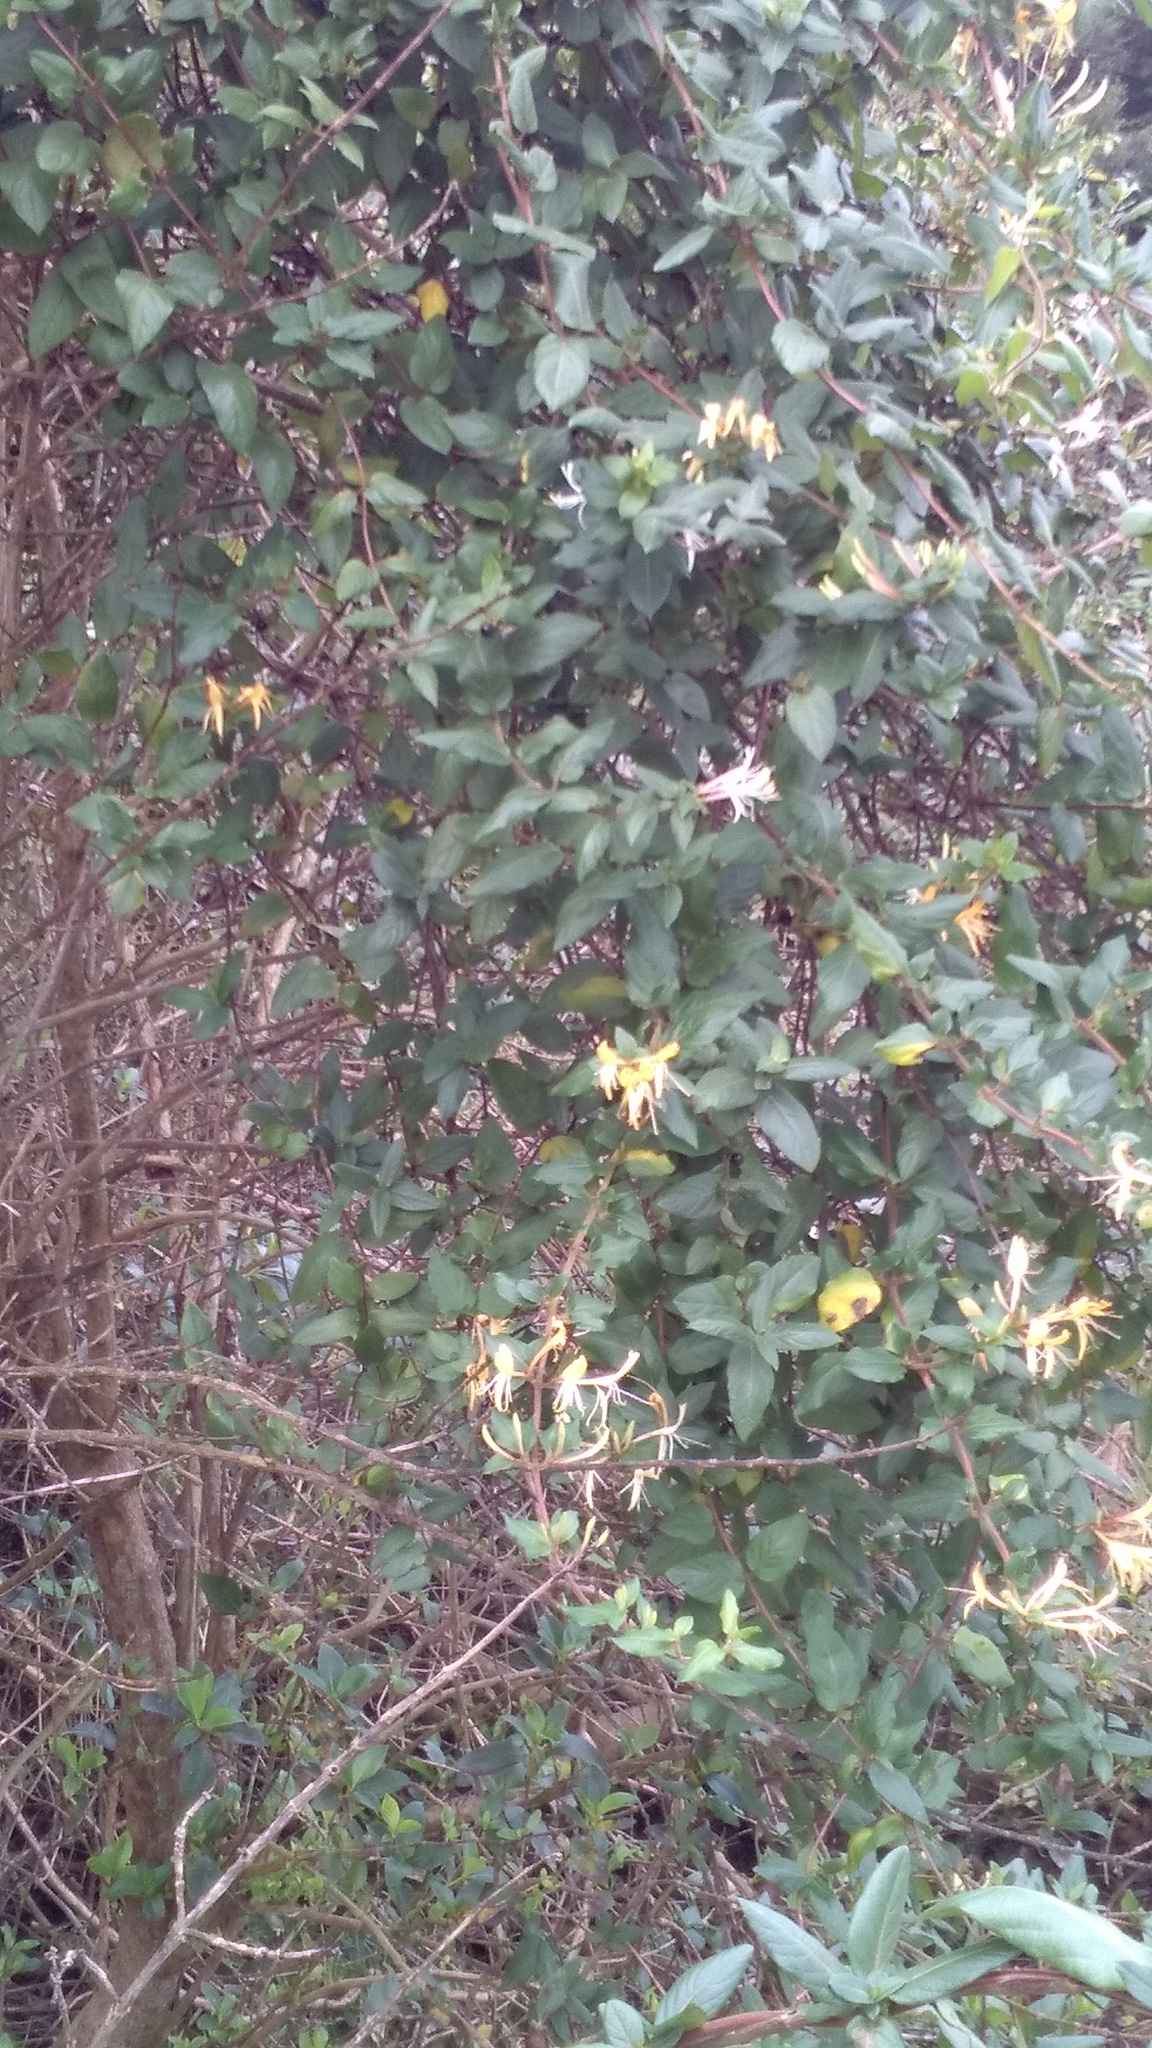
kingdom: Plantae
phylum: Tracheophyta
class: Magnoliopsida
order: Dipsacales
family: Caprifoliaceae
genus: Lonicera
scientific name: Lonicera japonica
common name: Japanese honeysuckle
